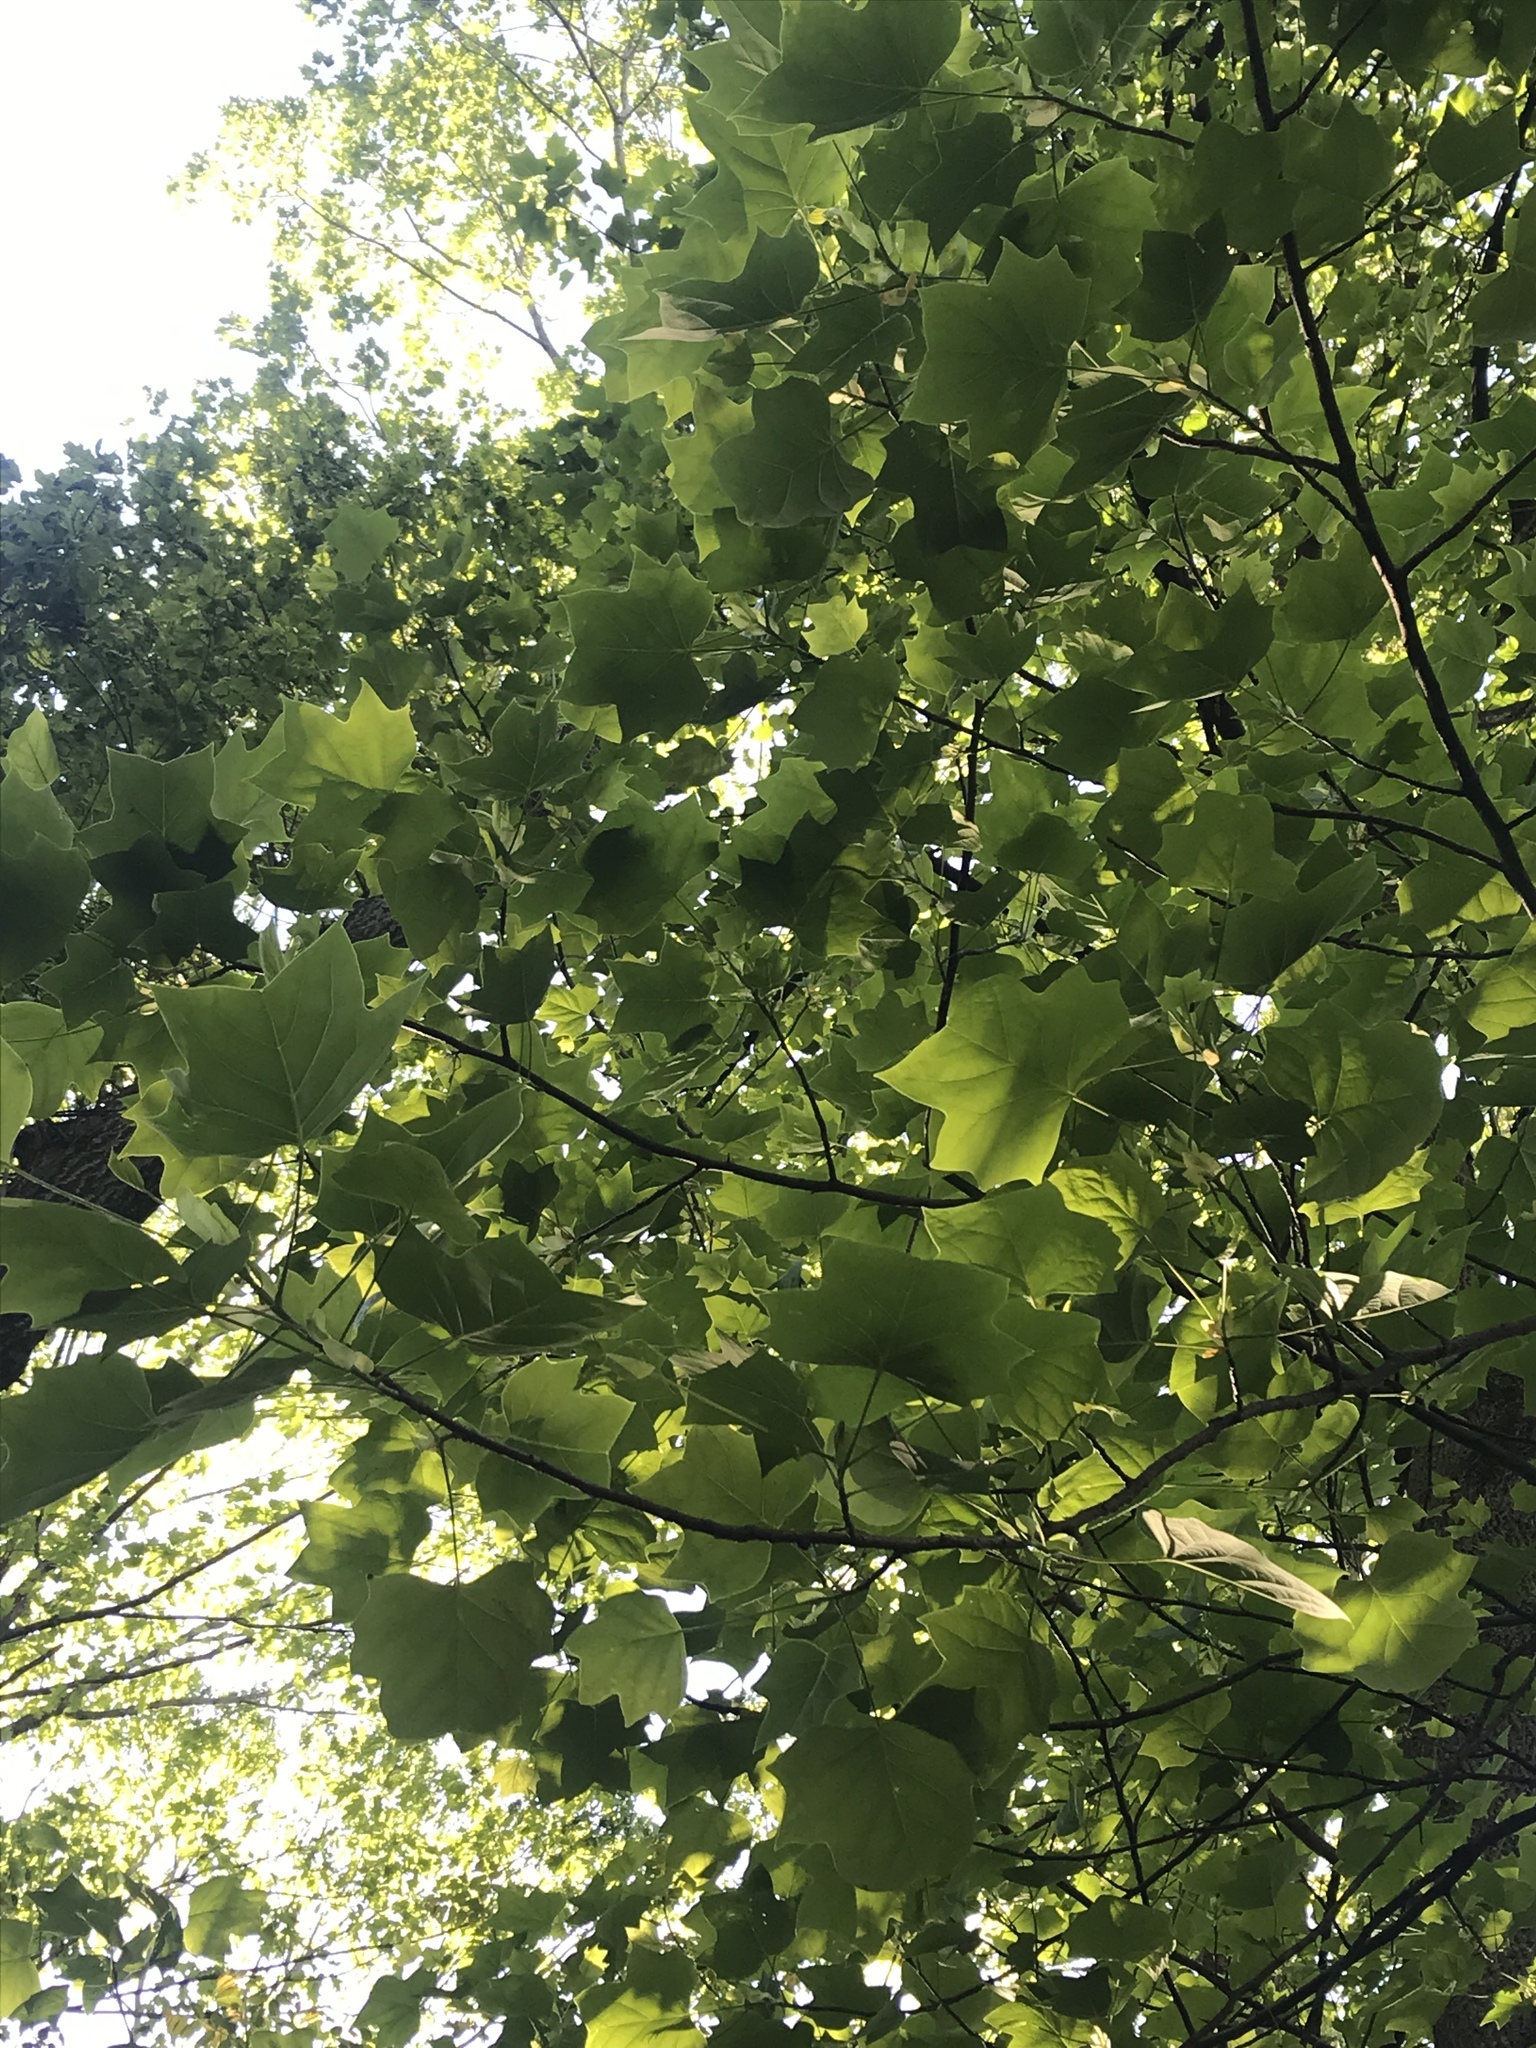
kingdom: Plantae
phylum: Tracheophyta
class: Magnoliopsida
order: Magnoliales
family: Magnoliaceae
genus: Liriodendron
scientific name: Liriodendron tulipifera
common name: Tulip tree
